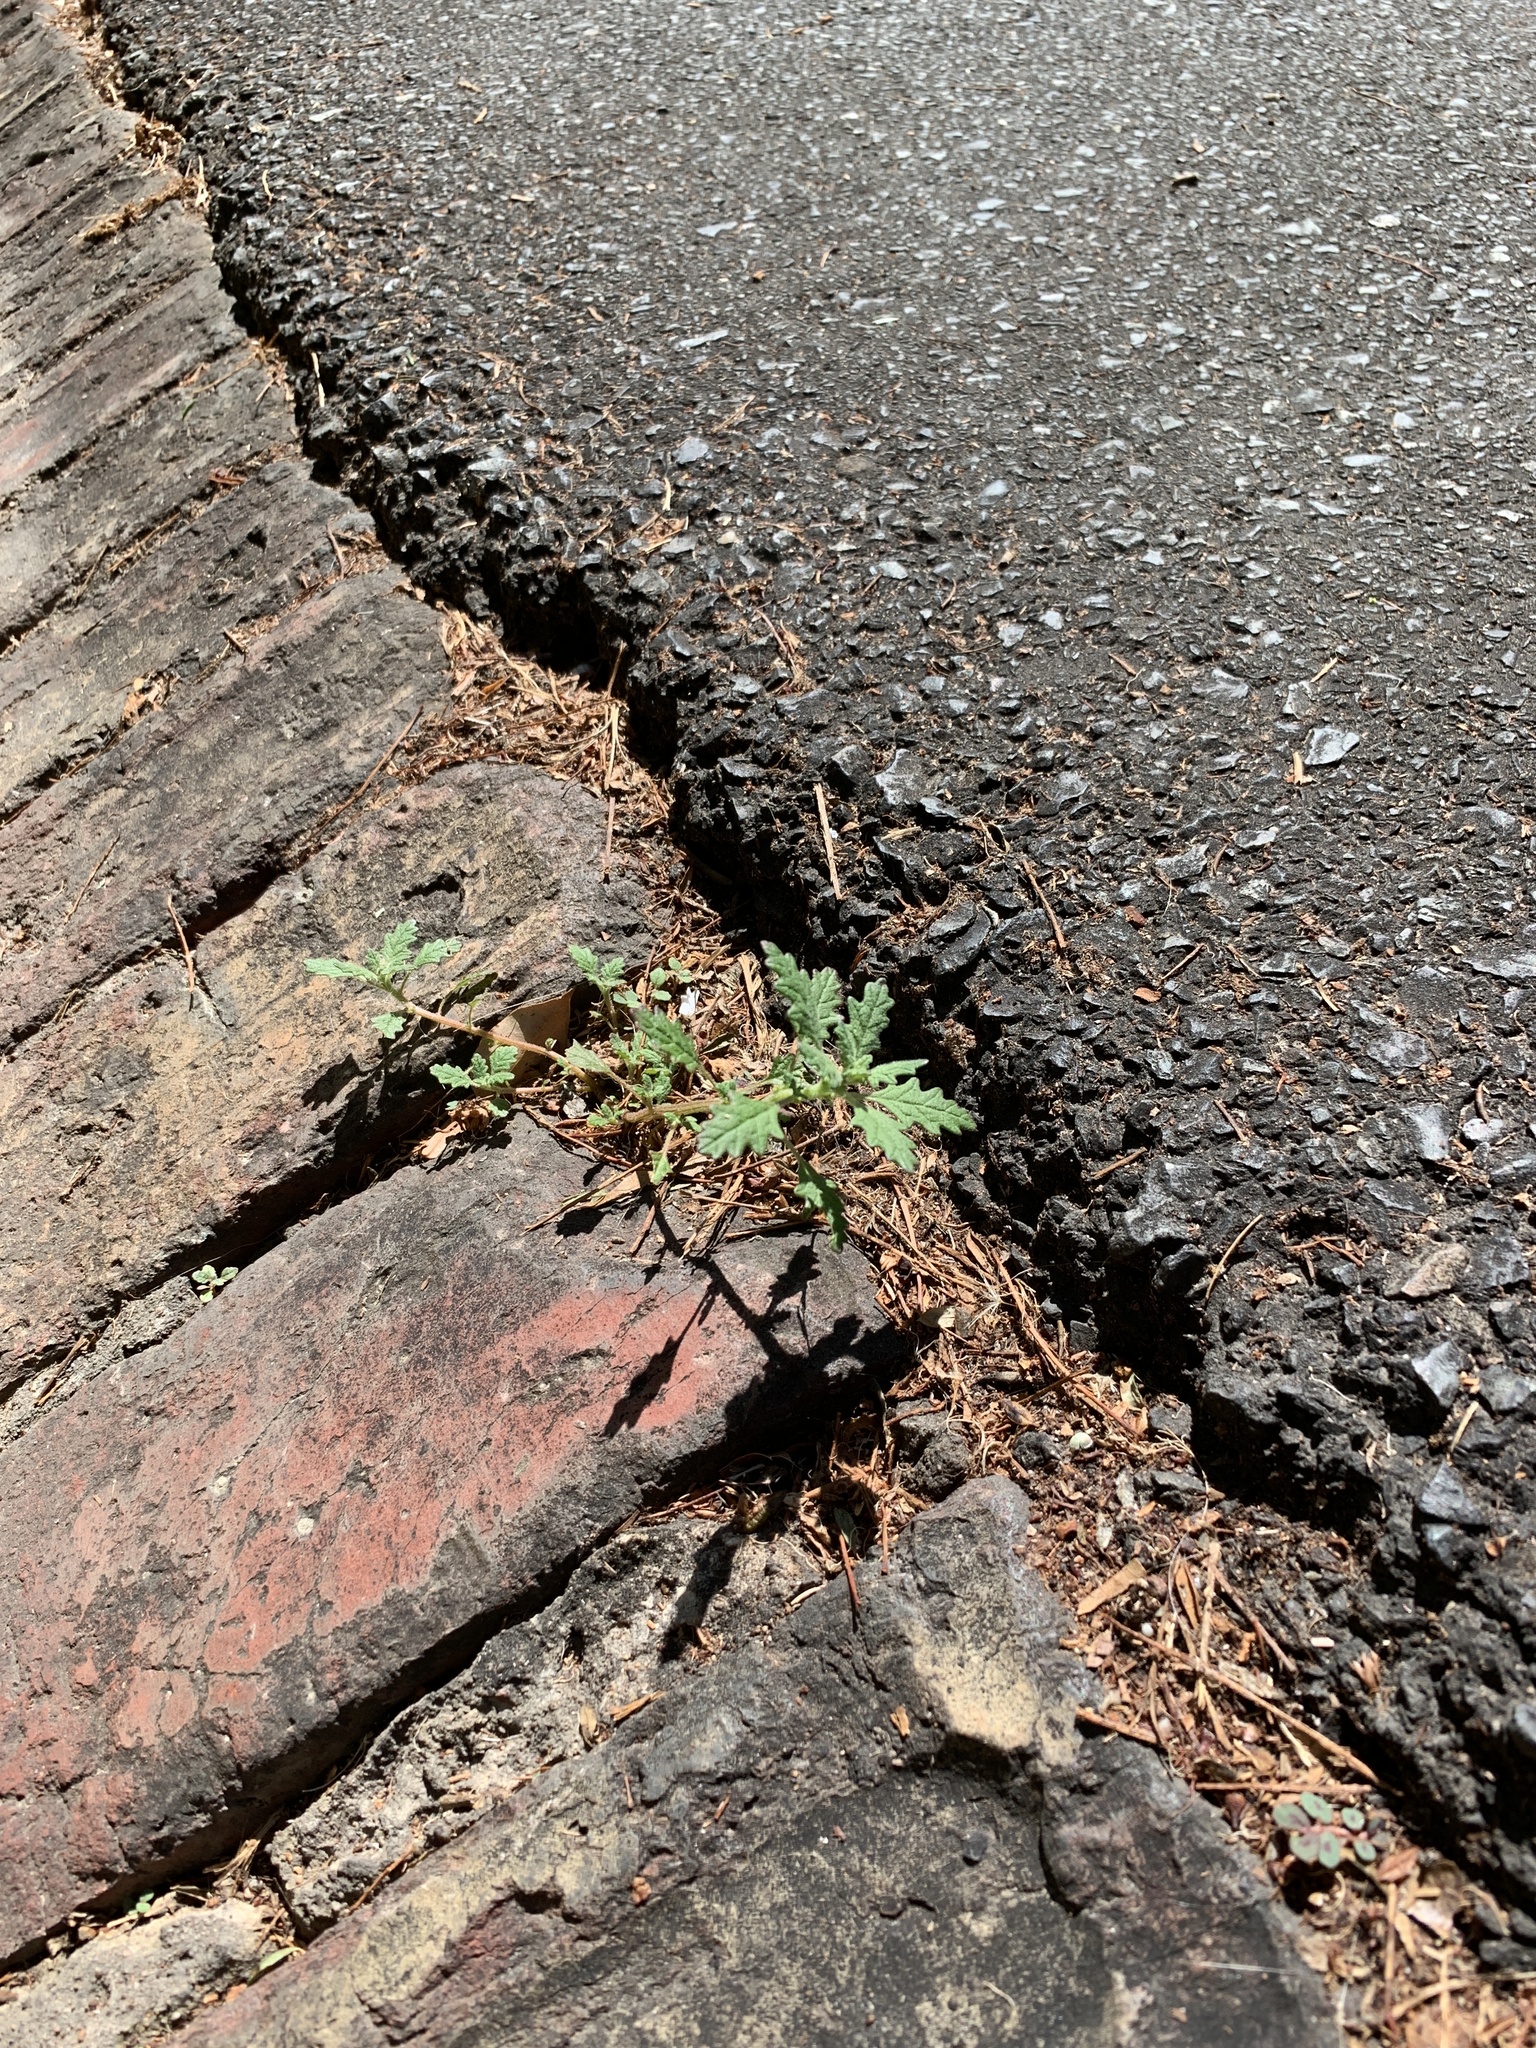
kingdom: Plantae
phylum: Tracheophyta
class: Magnoliopsida
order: Caryophyllales
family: Amaranthaceae
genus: Dysphania
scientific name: Dysphania pumilio
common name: Clammy goosefoot
